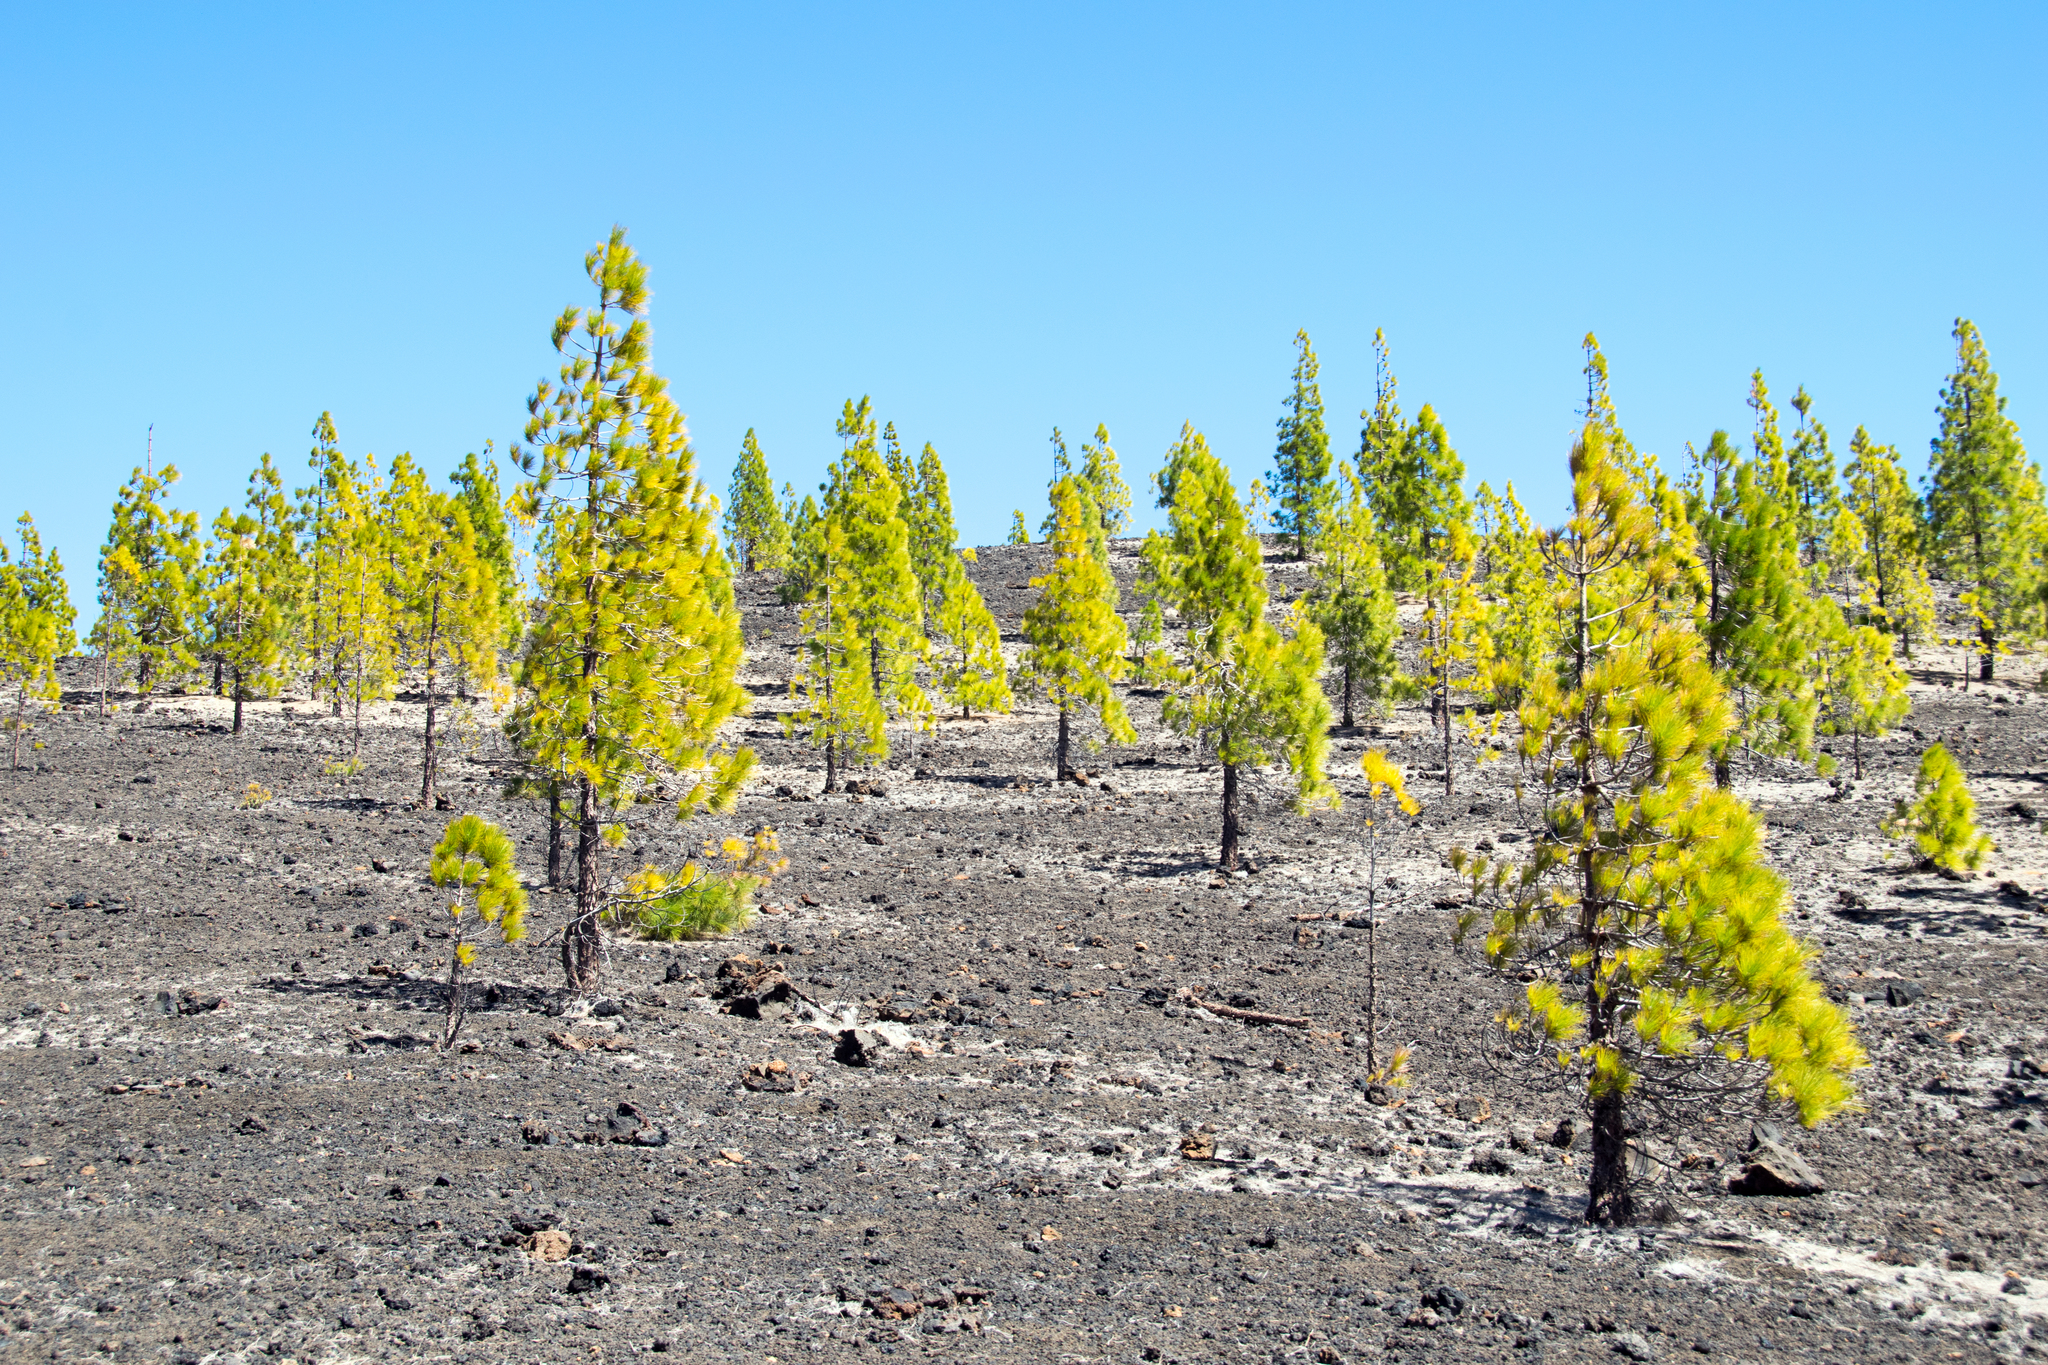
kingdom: Plantae
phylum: Tracheophyta
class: Pinopsida
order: Pinales
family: Pinaceae
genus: Pinus
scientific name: Pinus canariensis
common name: Canary islands pine
